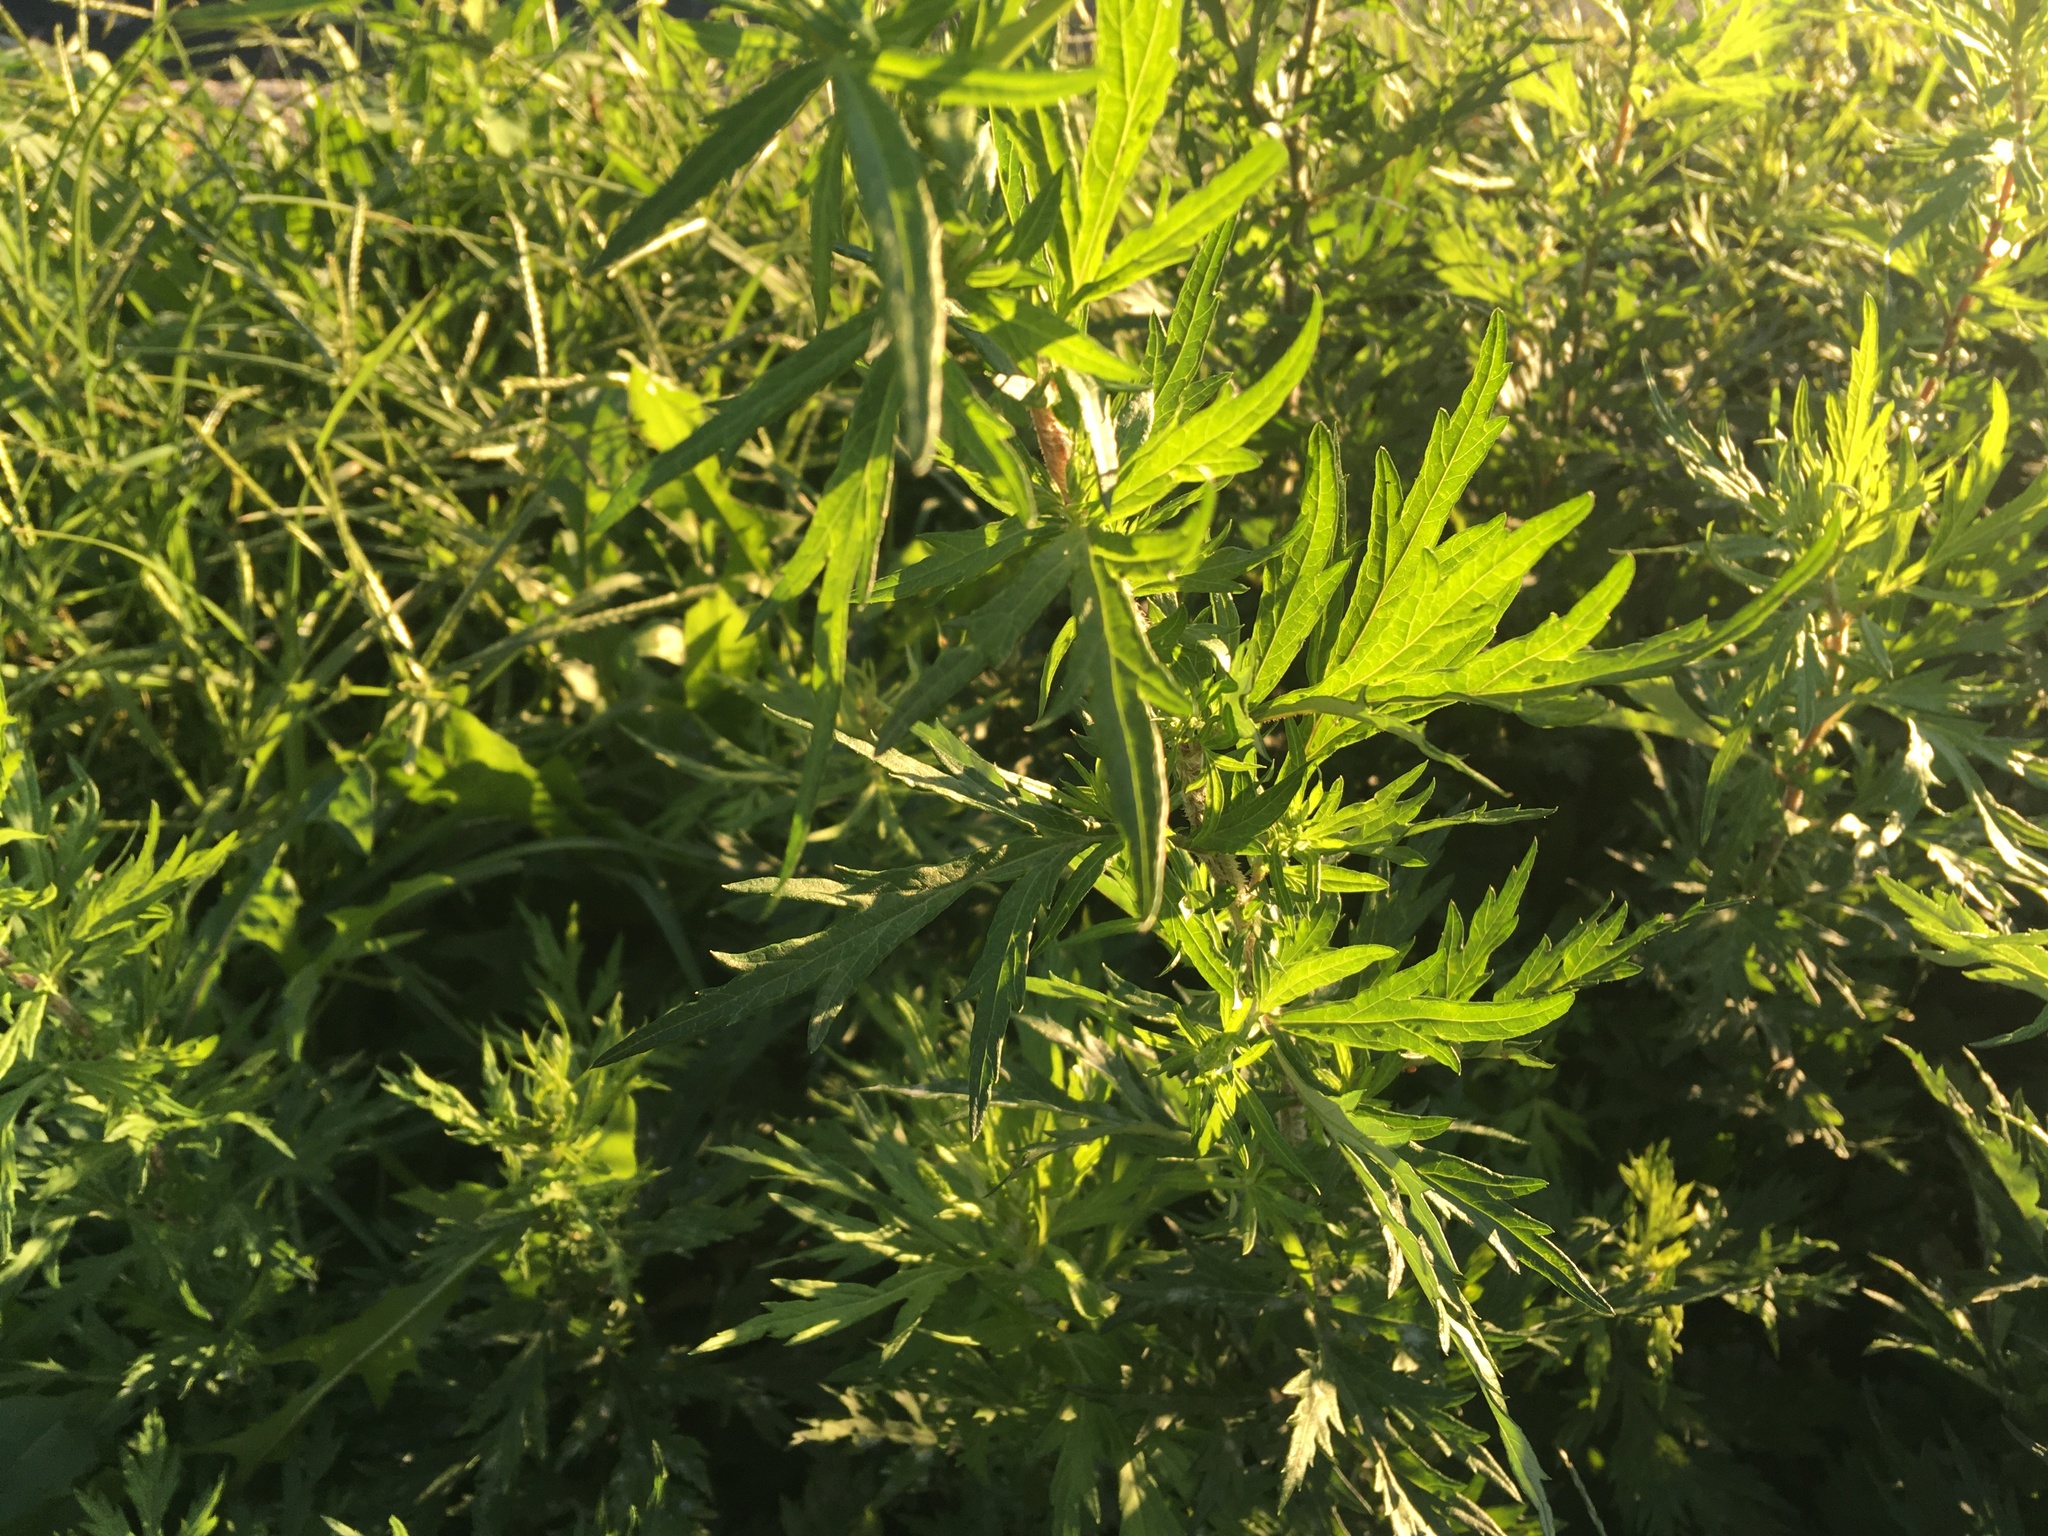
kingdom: Plantae
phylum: Tracheophyta
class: Magnoliopsida
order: Asterales
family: Asteraceae
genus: Artemisia
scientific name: Artemisia vulgaris
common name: Mugwort
